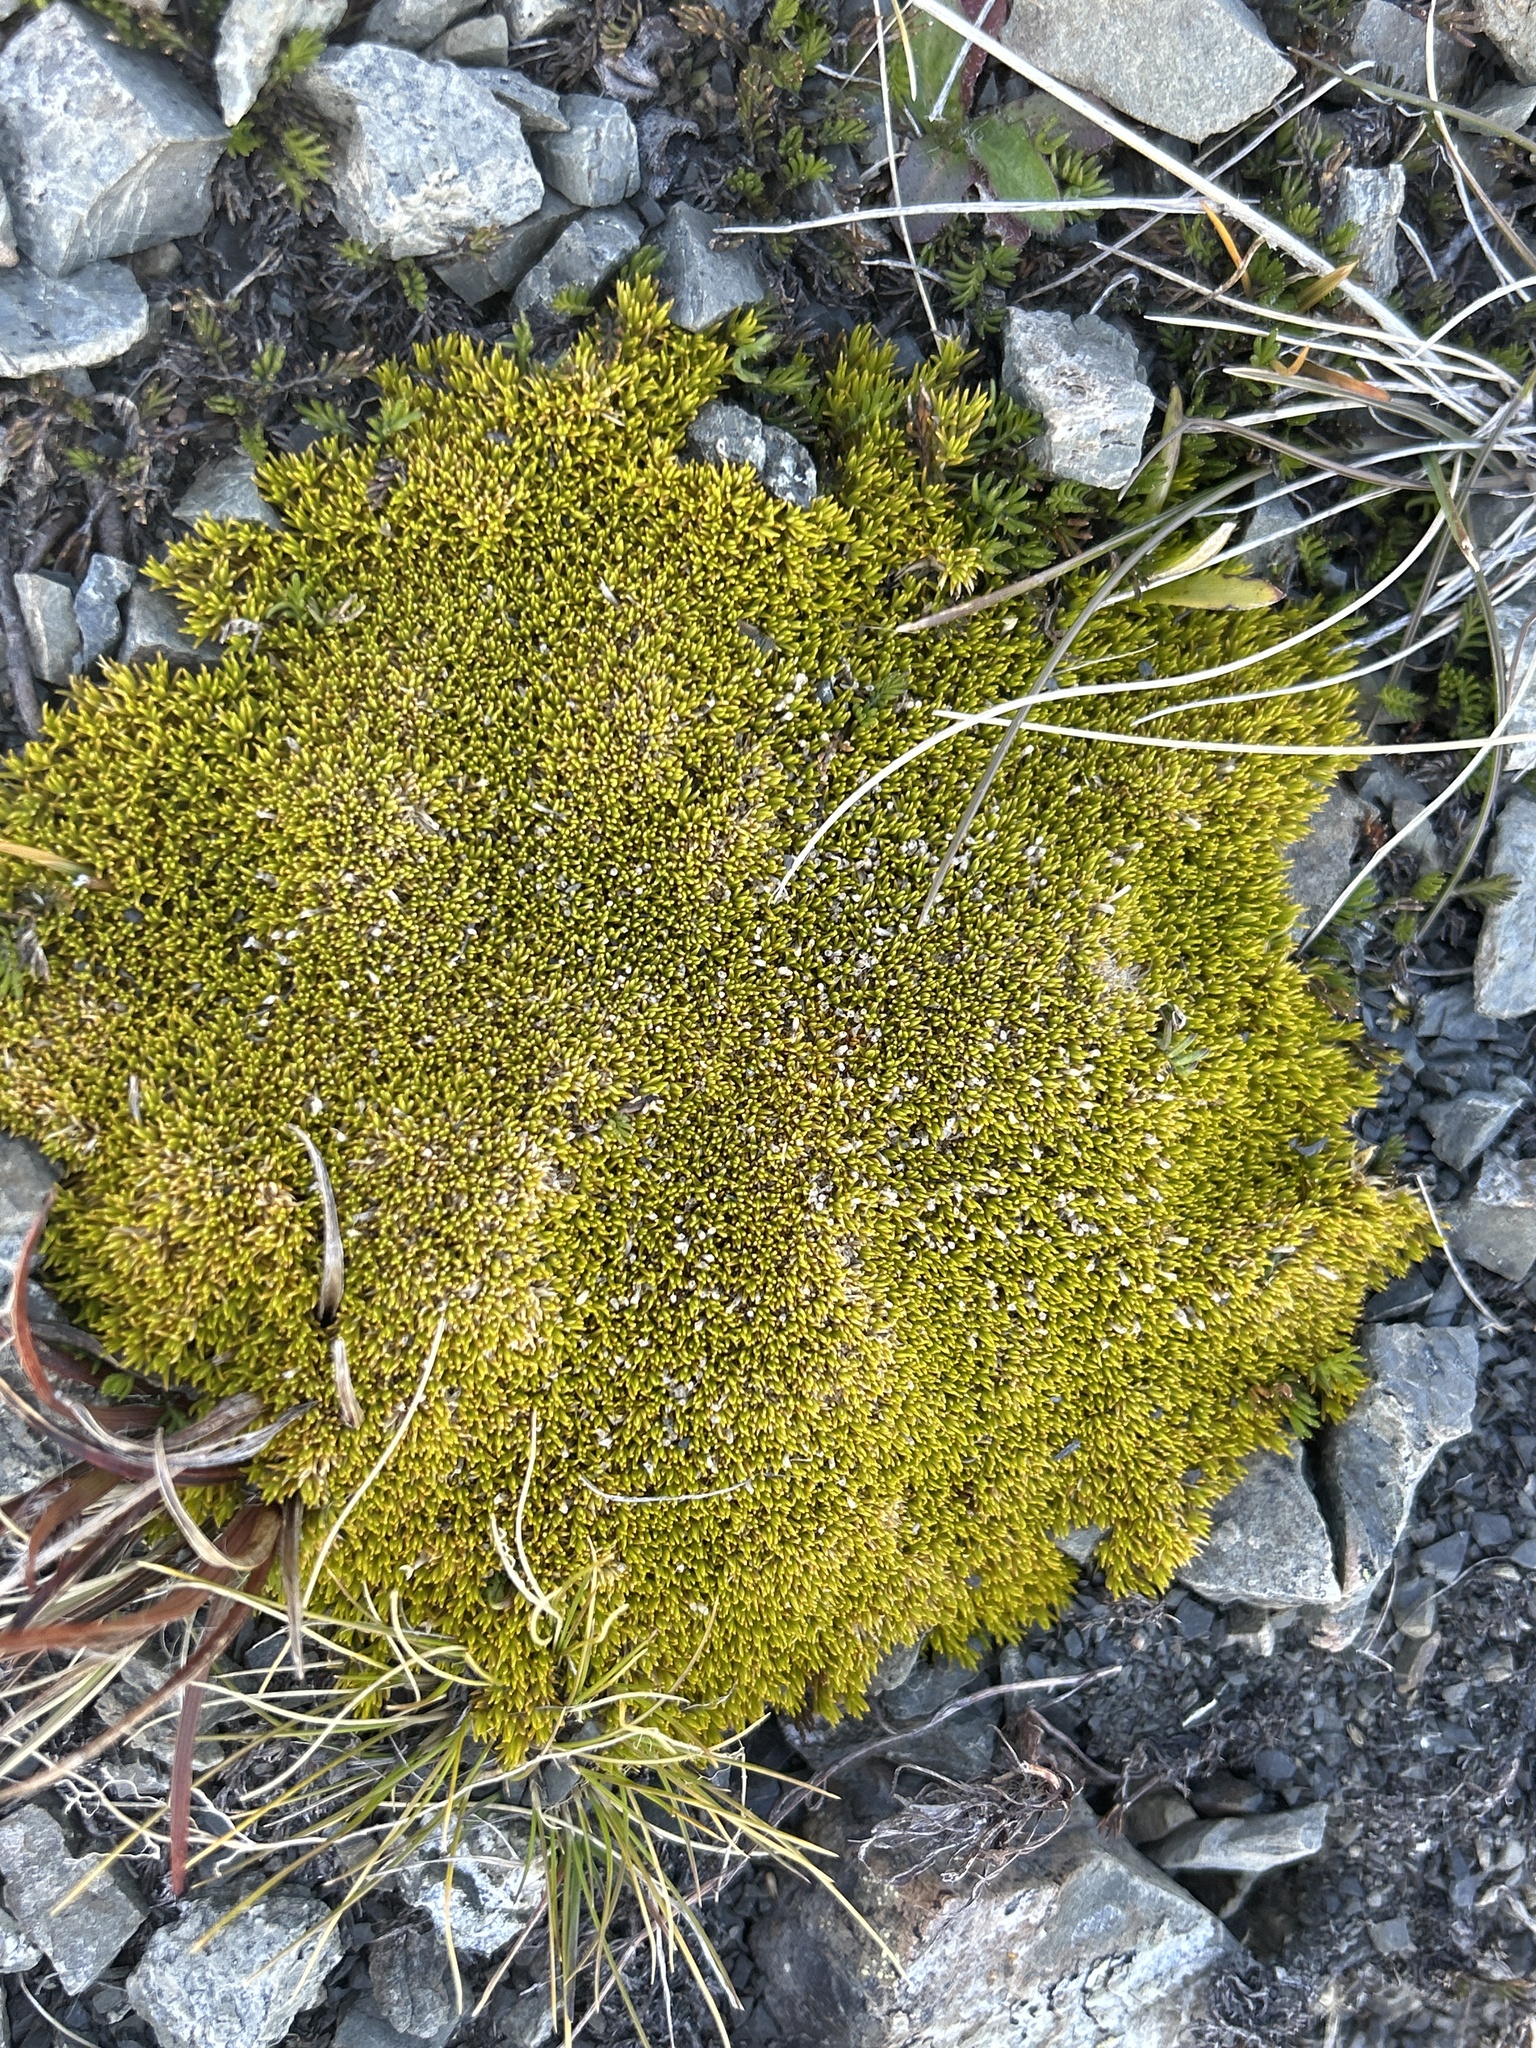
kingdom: Plantae
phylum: Tracheophyta
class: Magnoliopsida
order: Caryophyllales
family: Caryophyllaceae
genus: Scleranthus
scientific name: Scleranthus uniflorus
